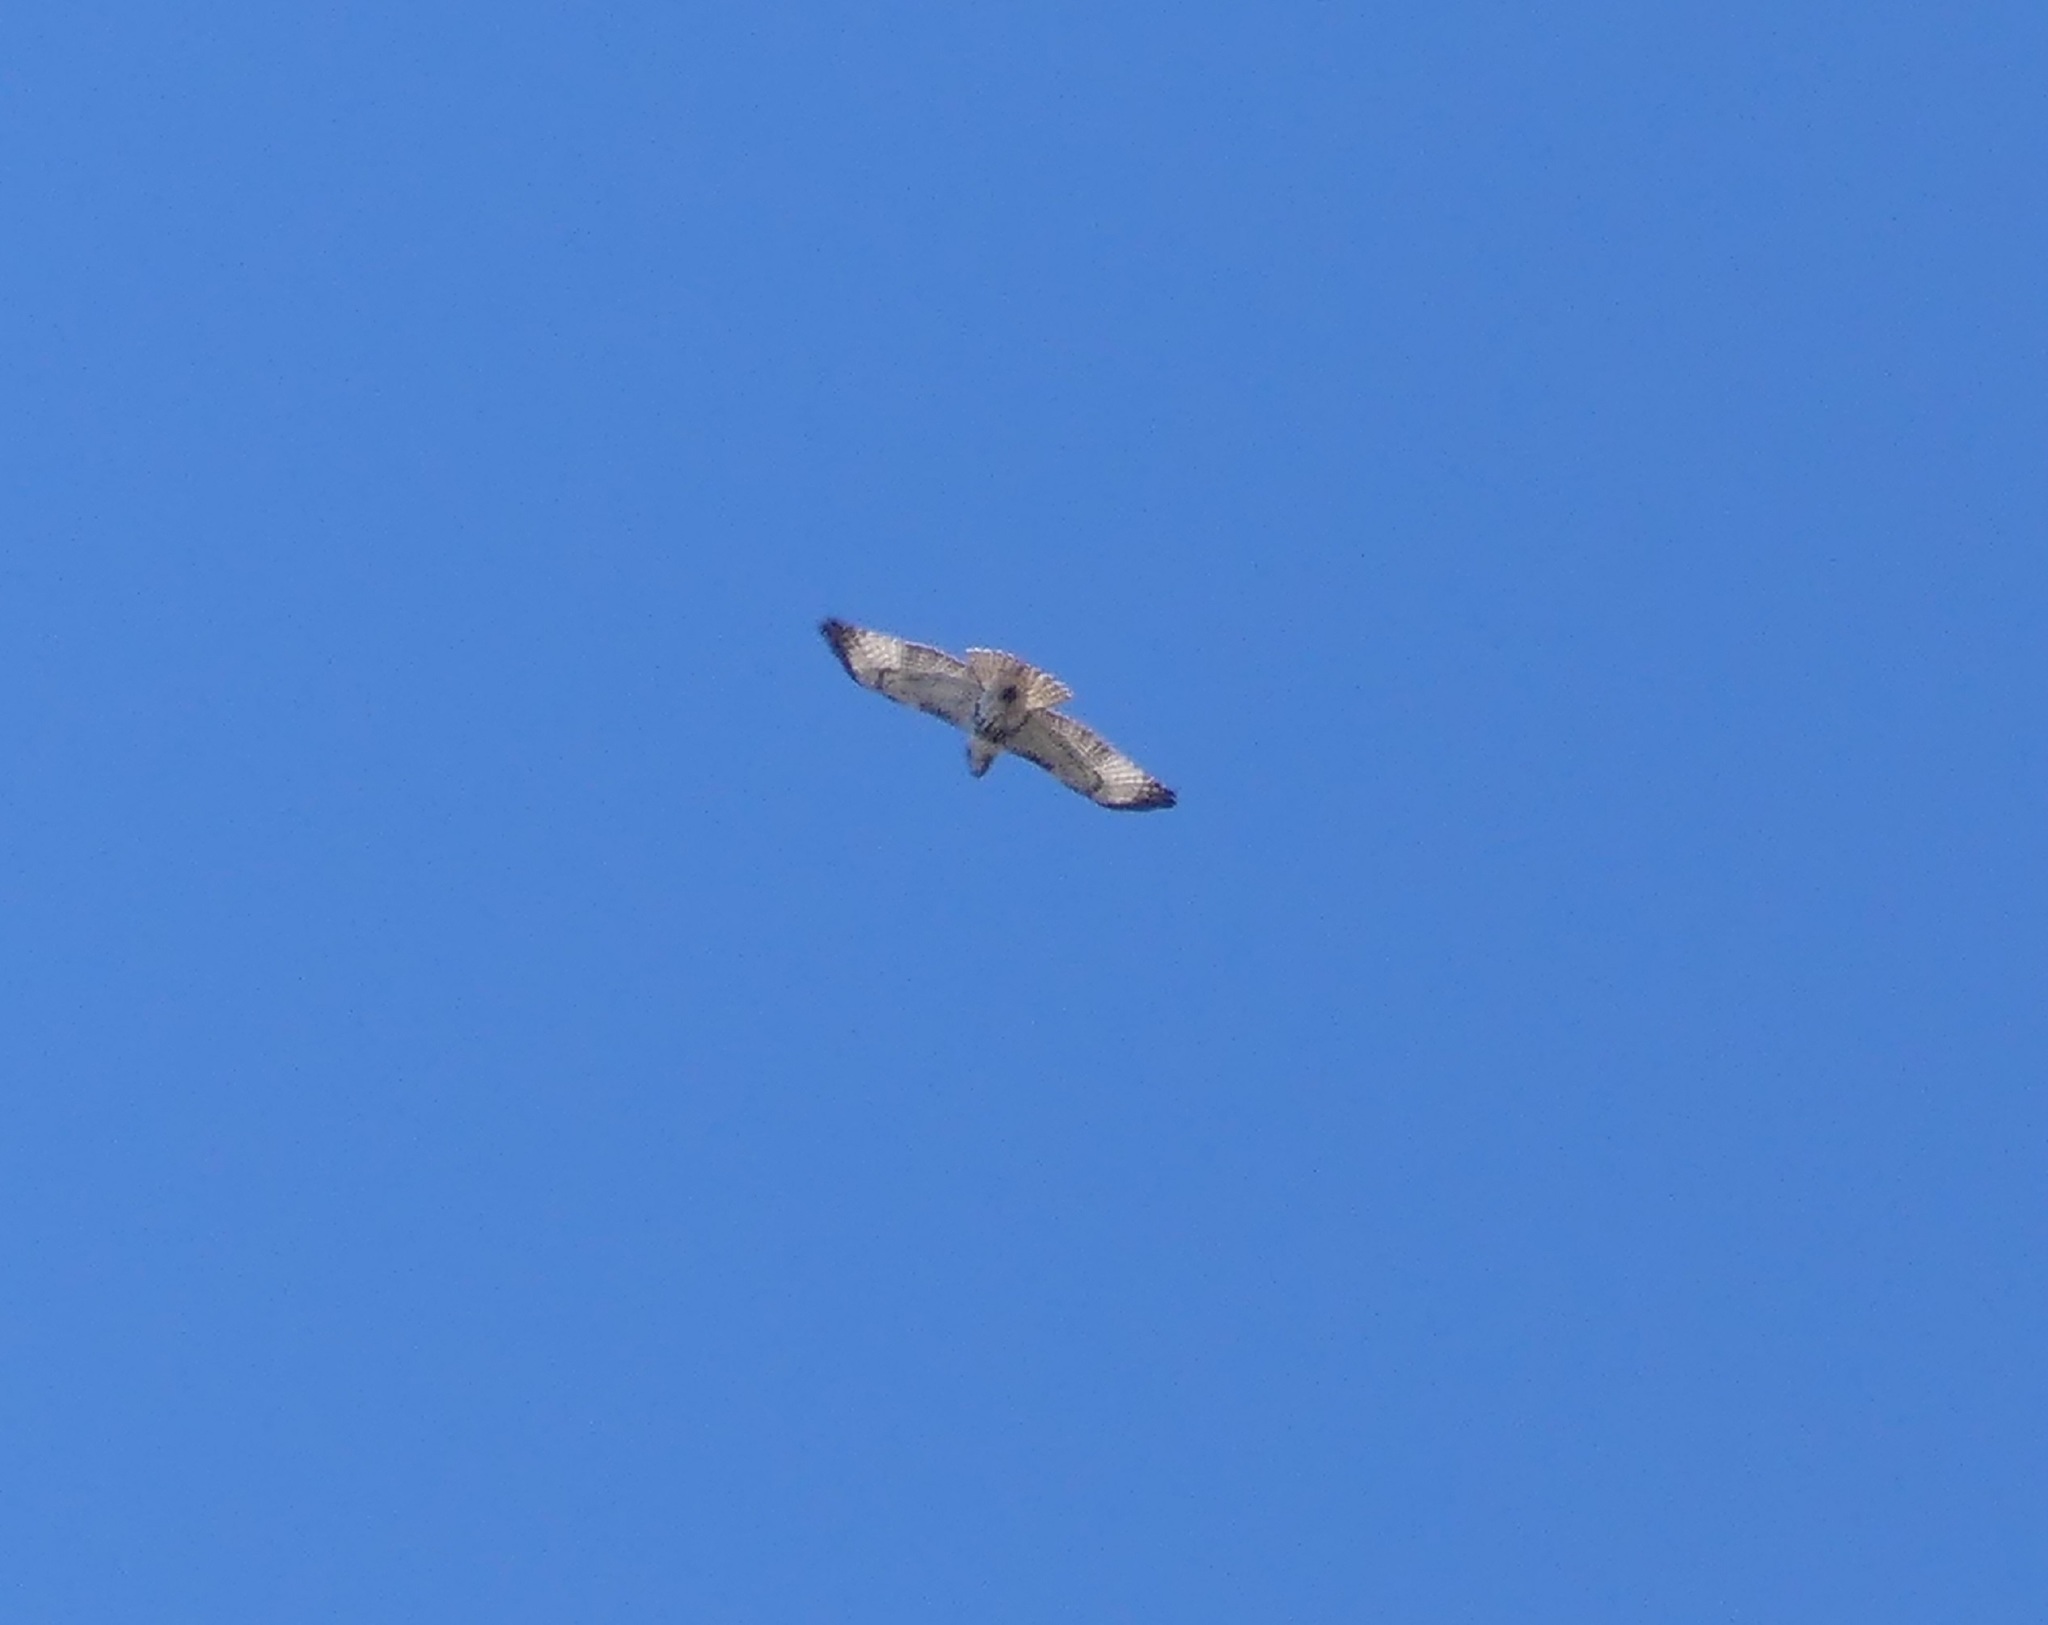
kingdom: Animalia
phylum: Chordata
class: Aves
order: Accipitriformes
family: Accipitridae
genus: Buteo
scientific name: Buteo jamaicensis
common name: Red-tailed hawk
